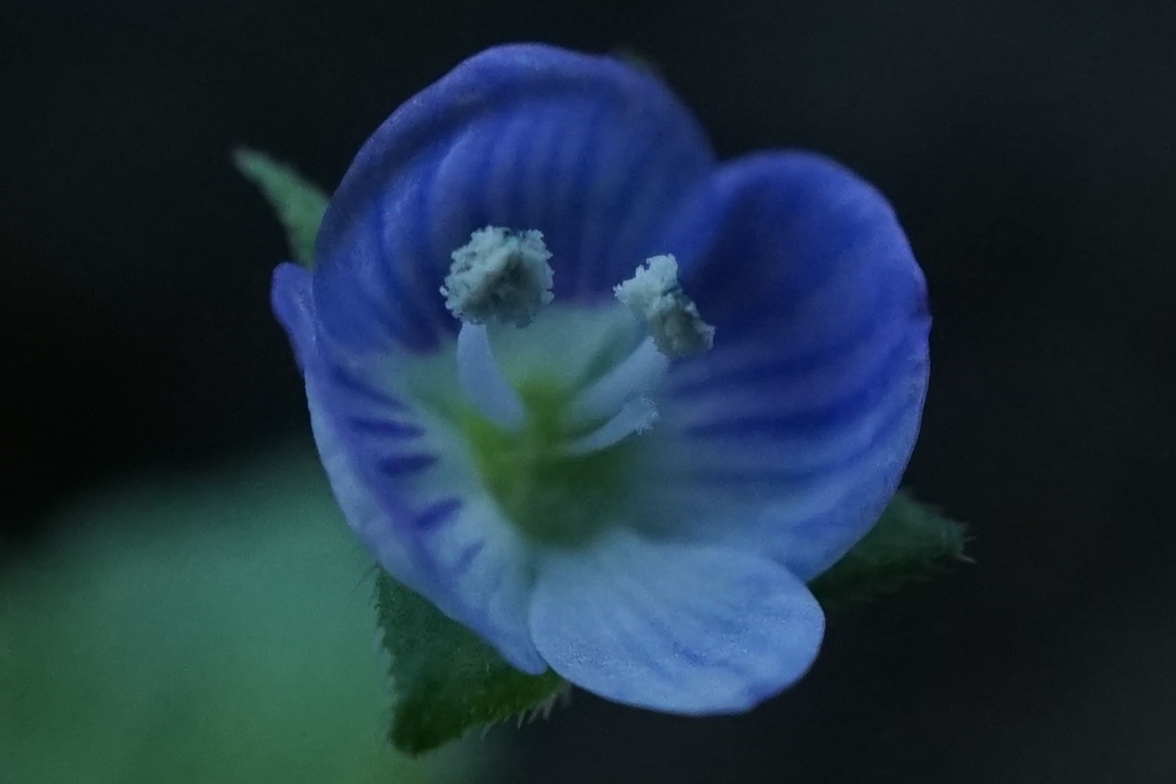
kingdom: Plantae
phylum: Tracheophyta
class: Magnoliopsida
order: Lamiales
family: Plantaginaceae
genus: Veronica
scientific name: Veronica persica
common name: Common field-speedwell
